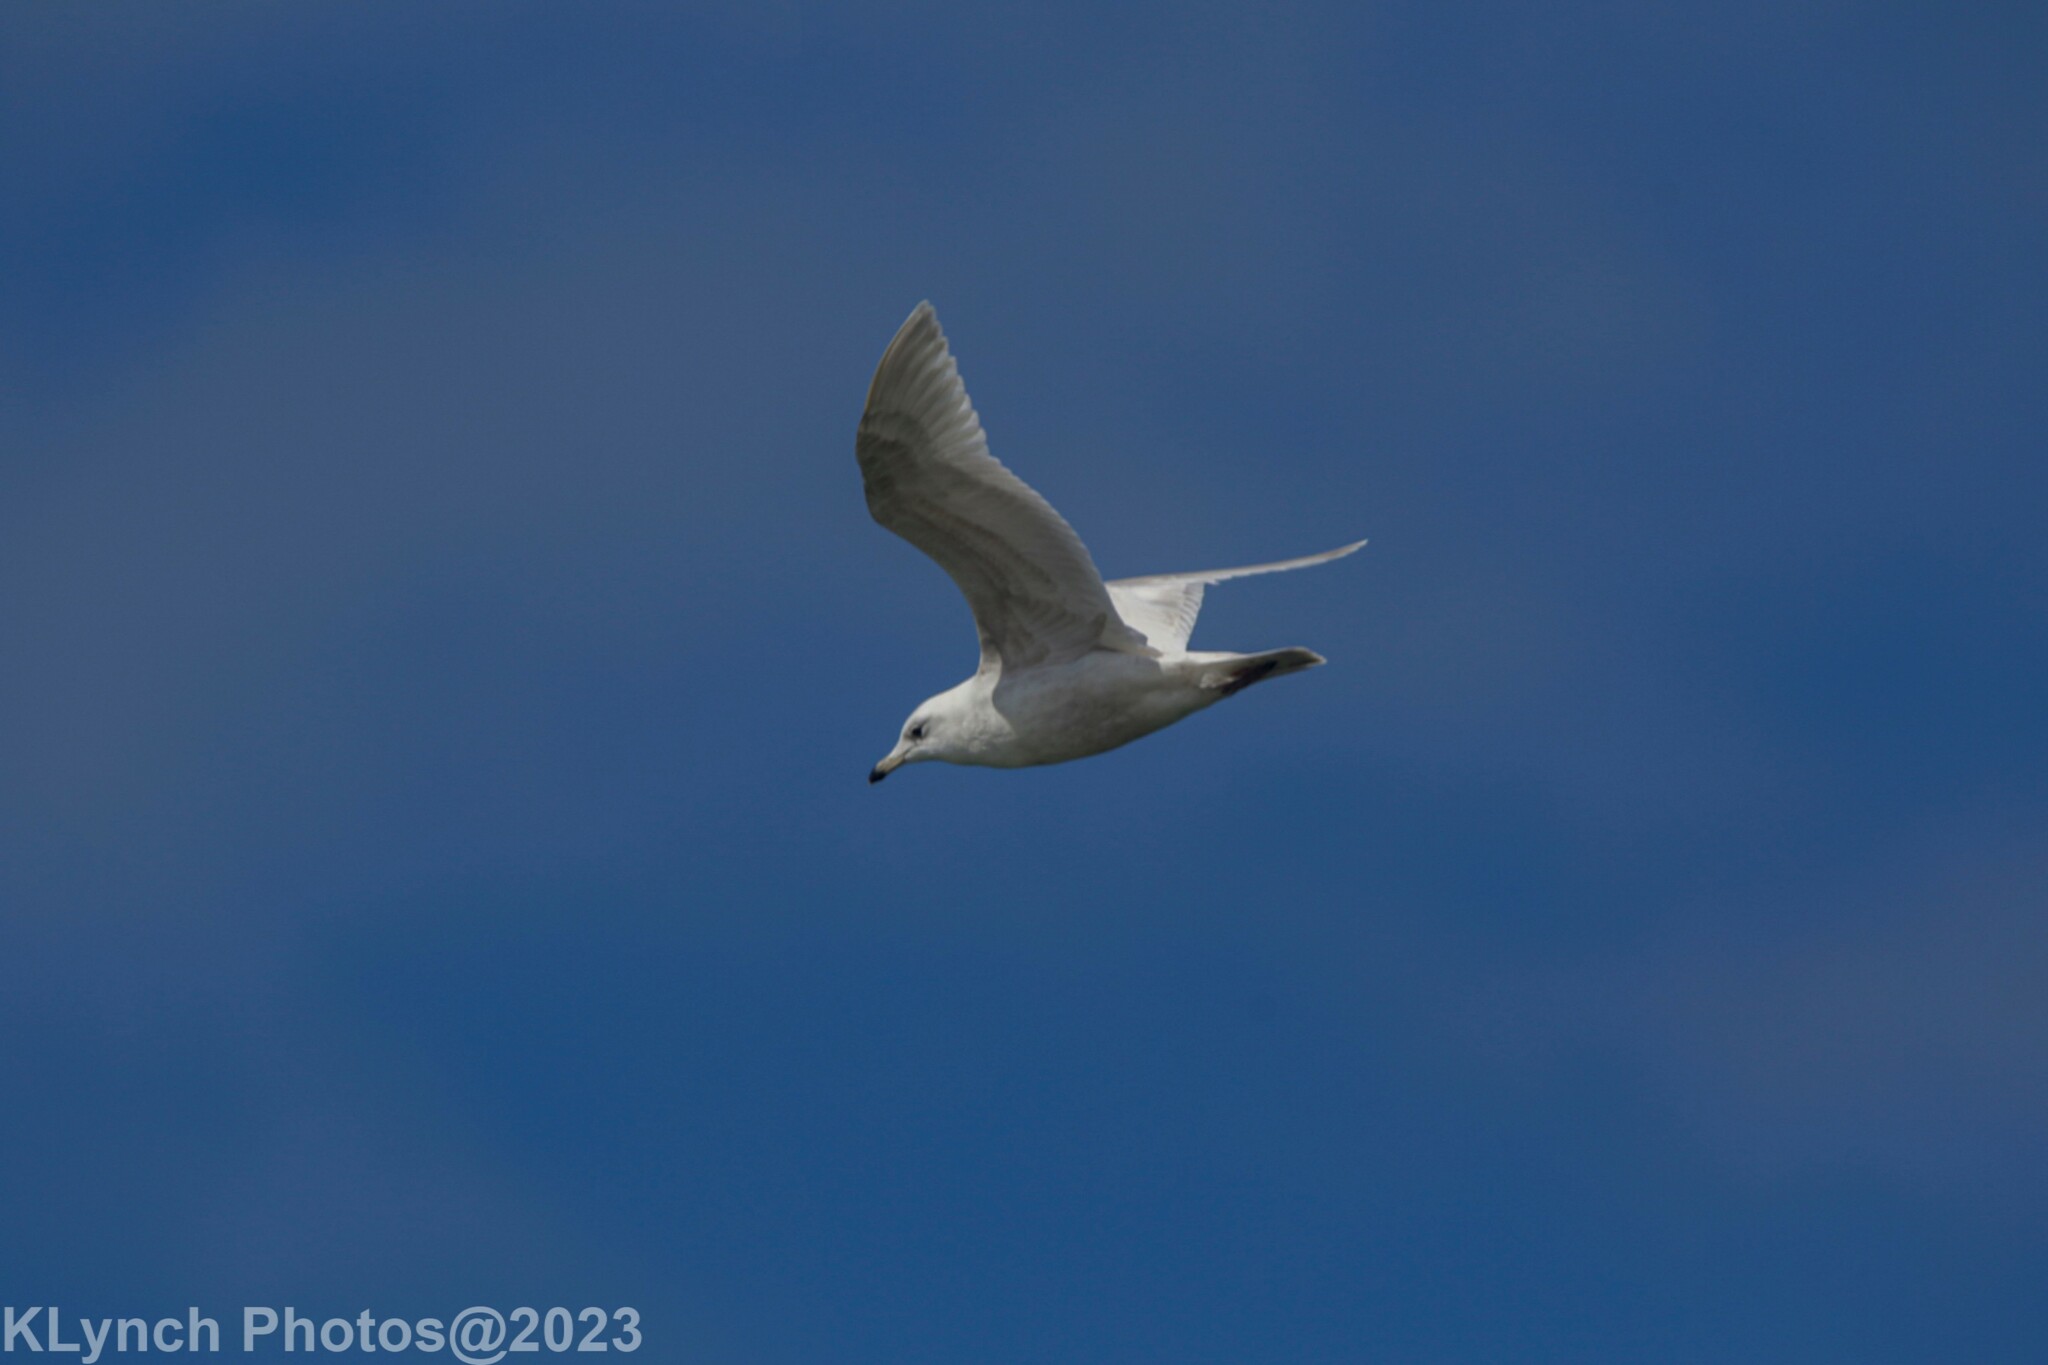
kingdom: Animalia
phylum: Chordata
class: Aves
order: Charadriiformes
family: Laridae
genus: Larus
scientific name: Larus delawarensis
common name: Ring-billed gull
